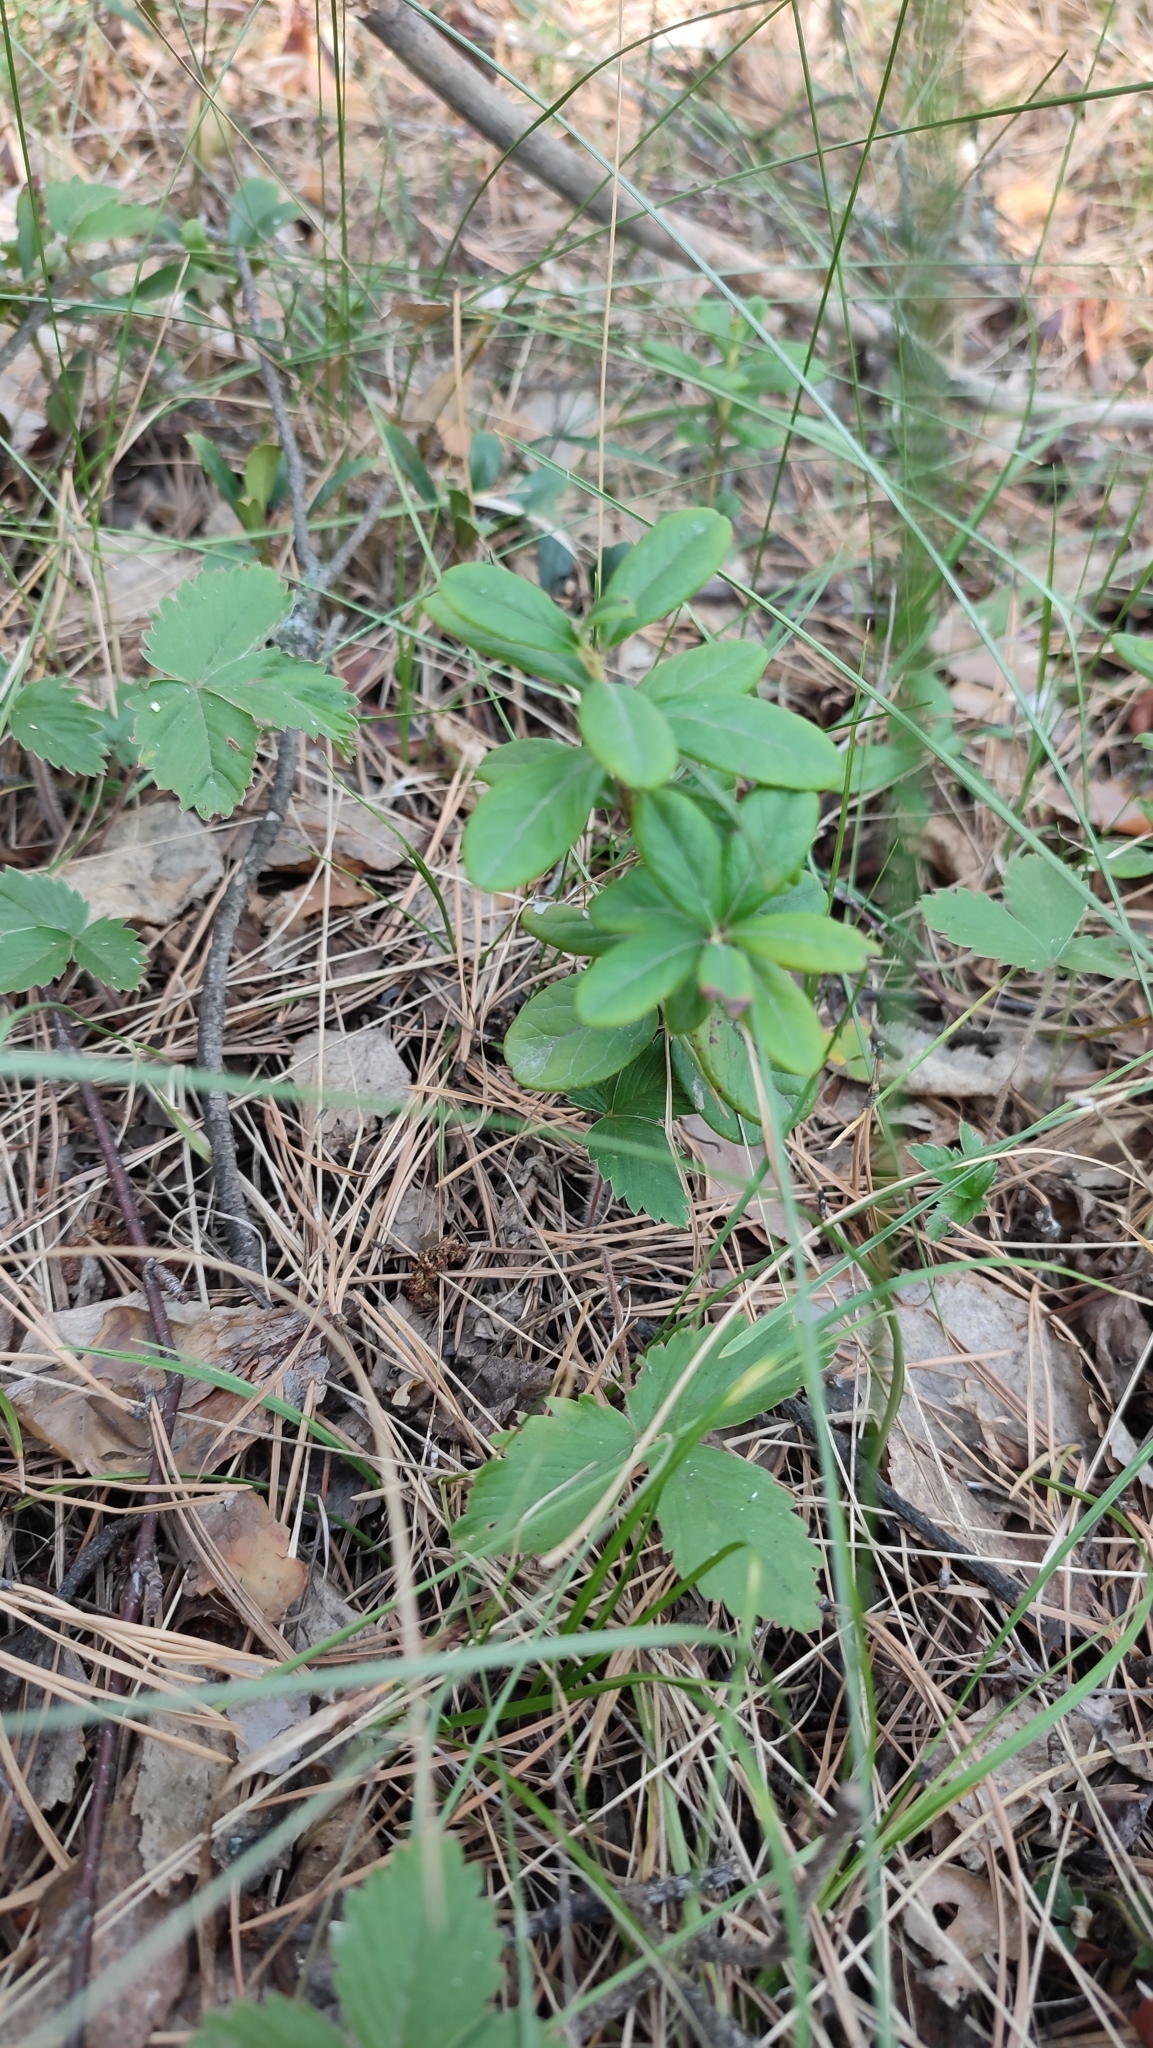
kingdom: Plantae
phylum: Tracheophyta
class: Magnoliopsida
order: Ericales
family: Ericaceae
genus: Vaccinium
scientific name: Vaccinium vitis-idaea
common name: Cowberry
